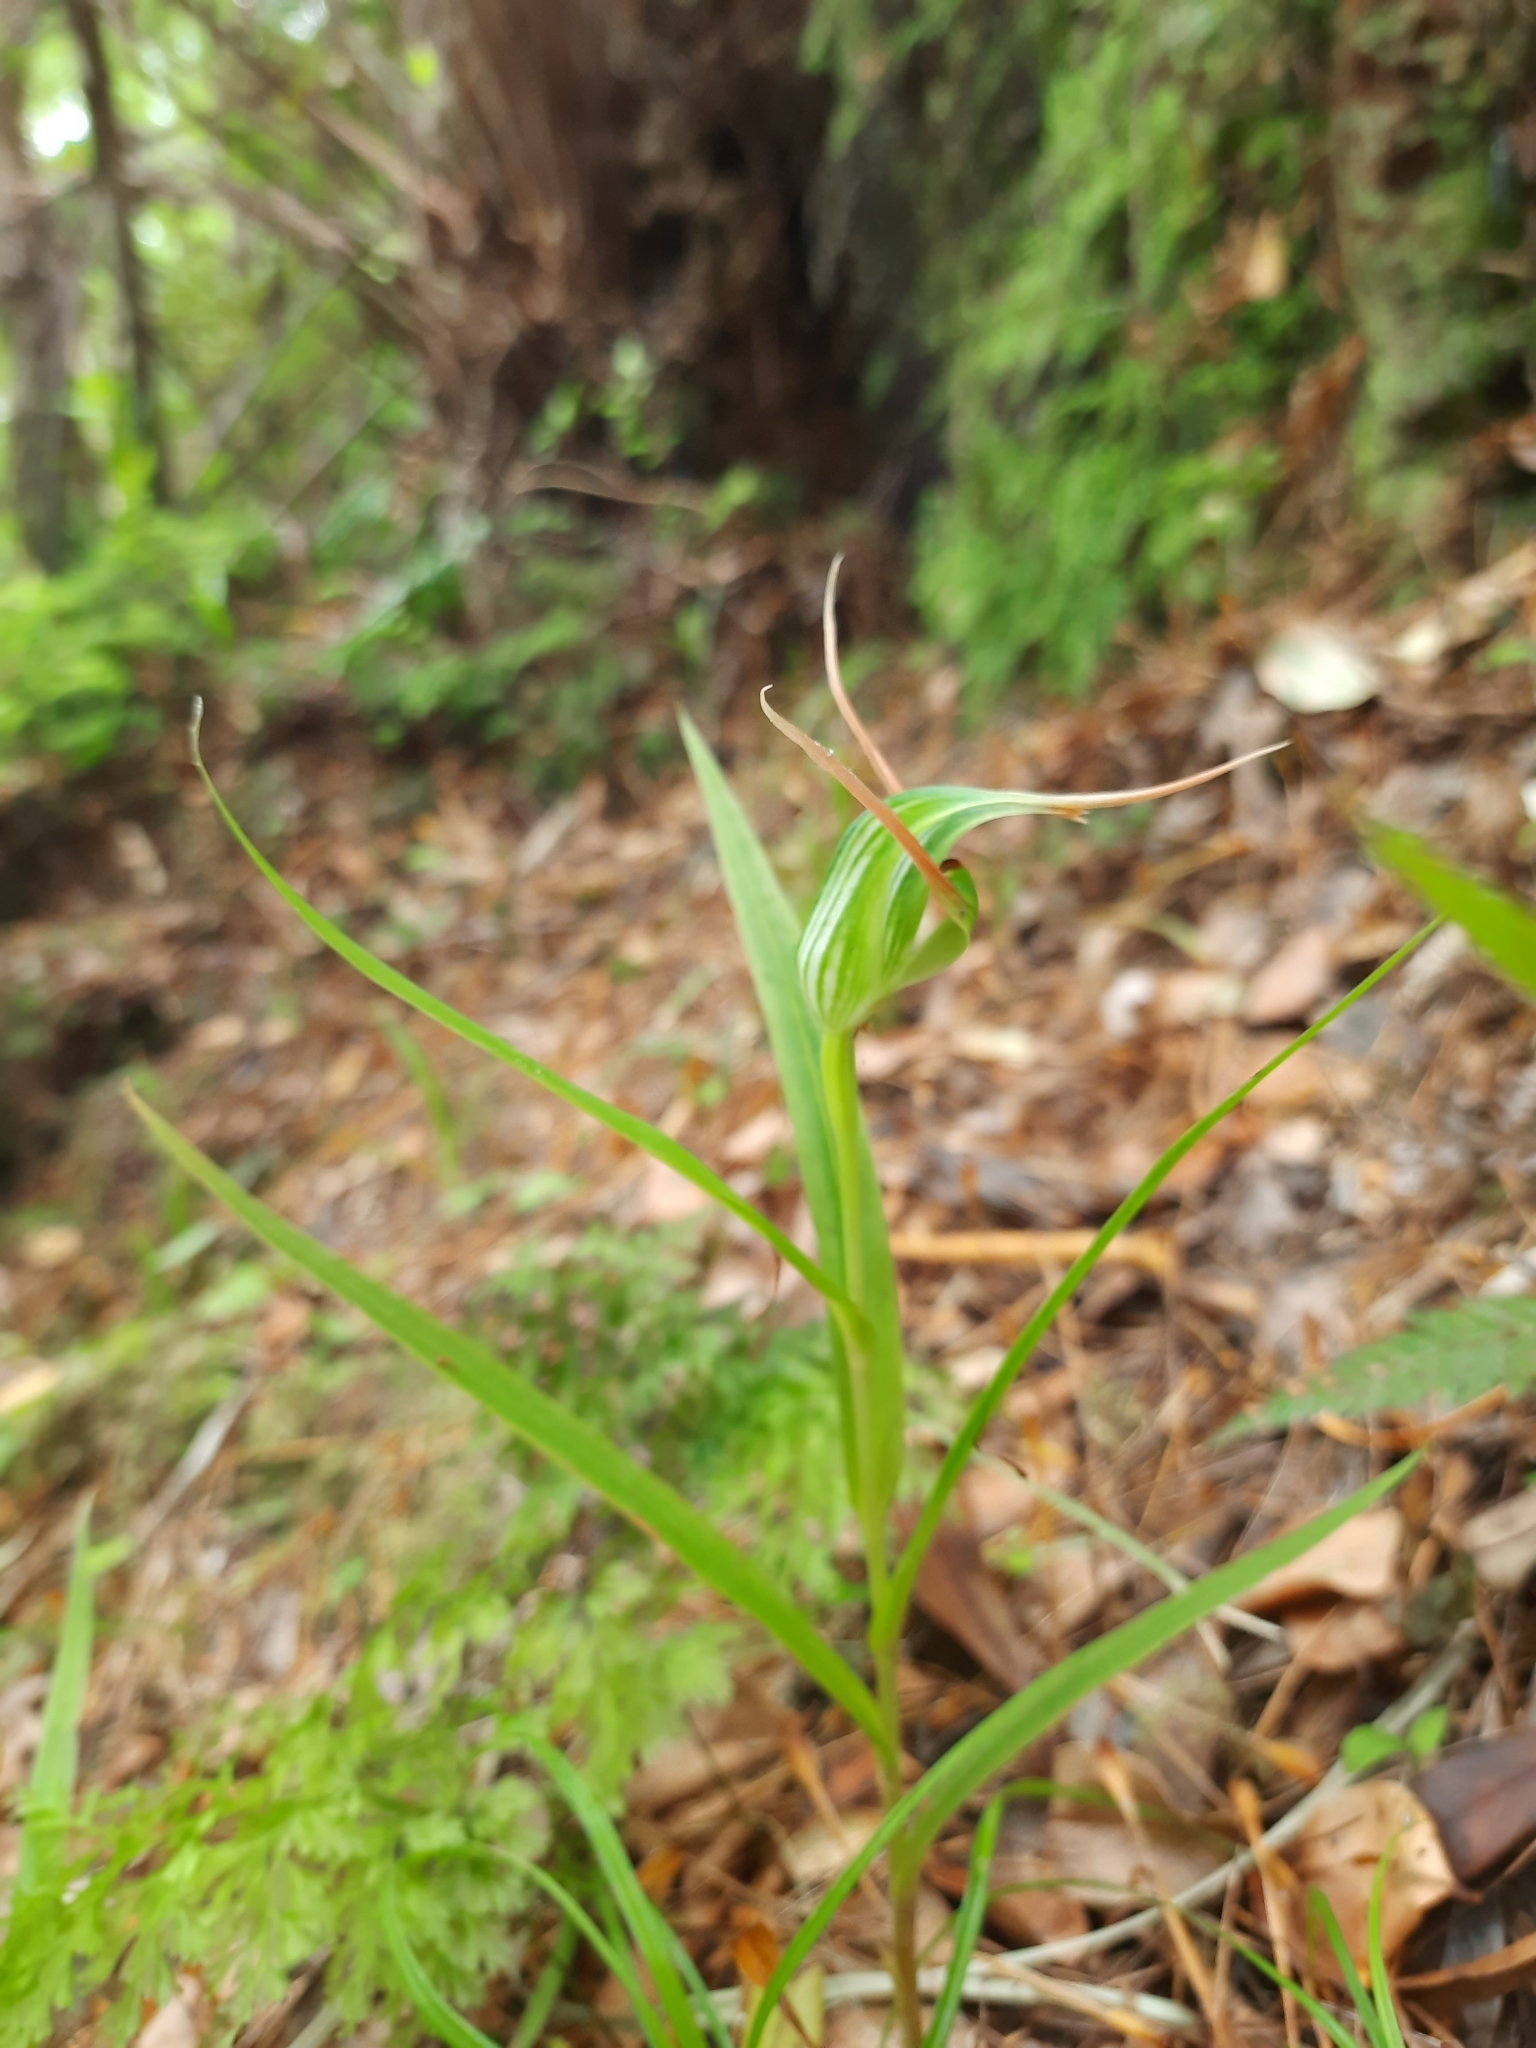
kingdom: Plantae
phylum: Tracheophyta
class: Liliopsida
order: Asparagales
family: Orchidaceae
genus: Pterostylis
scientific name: Pterostylis banksii
